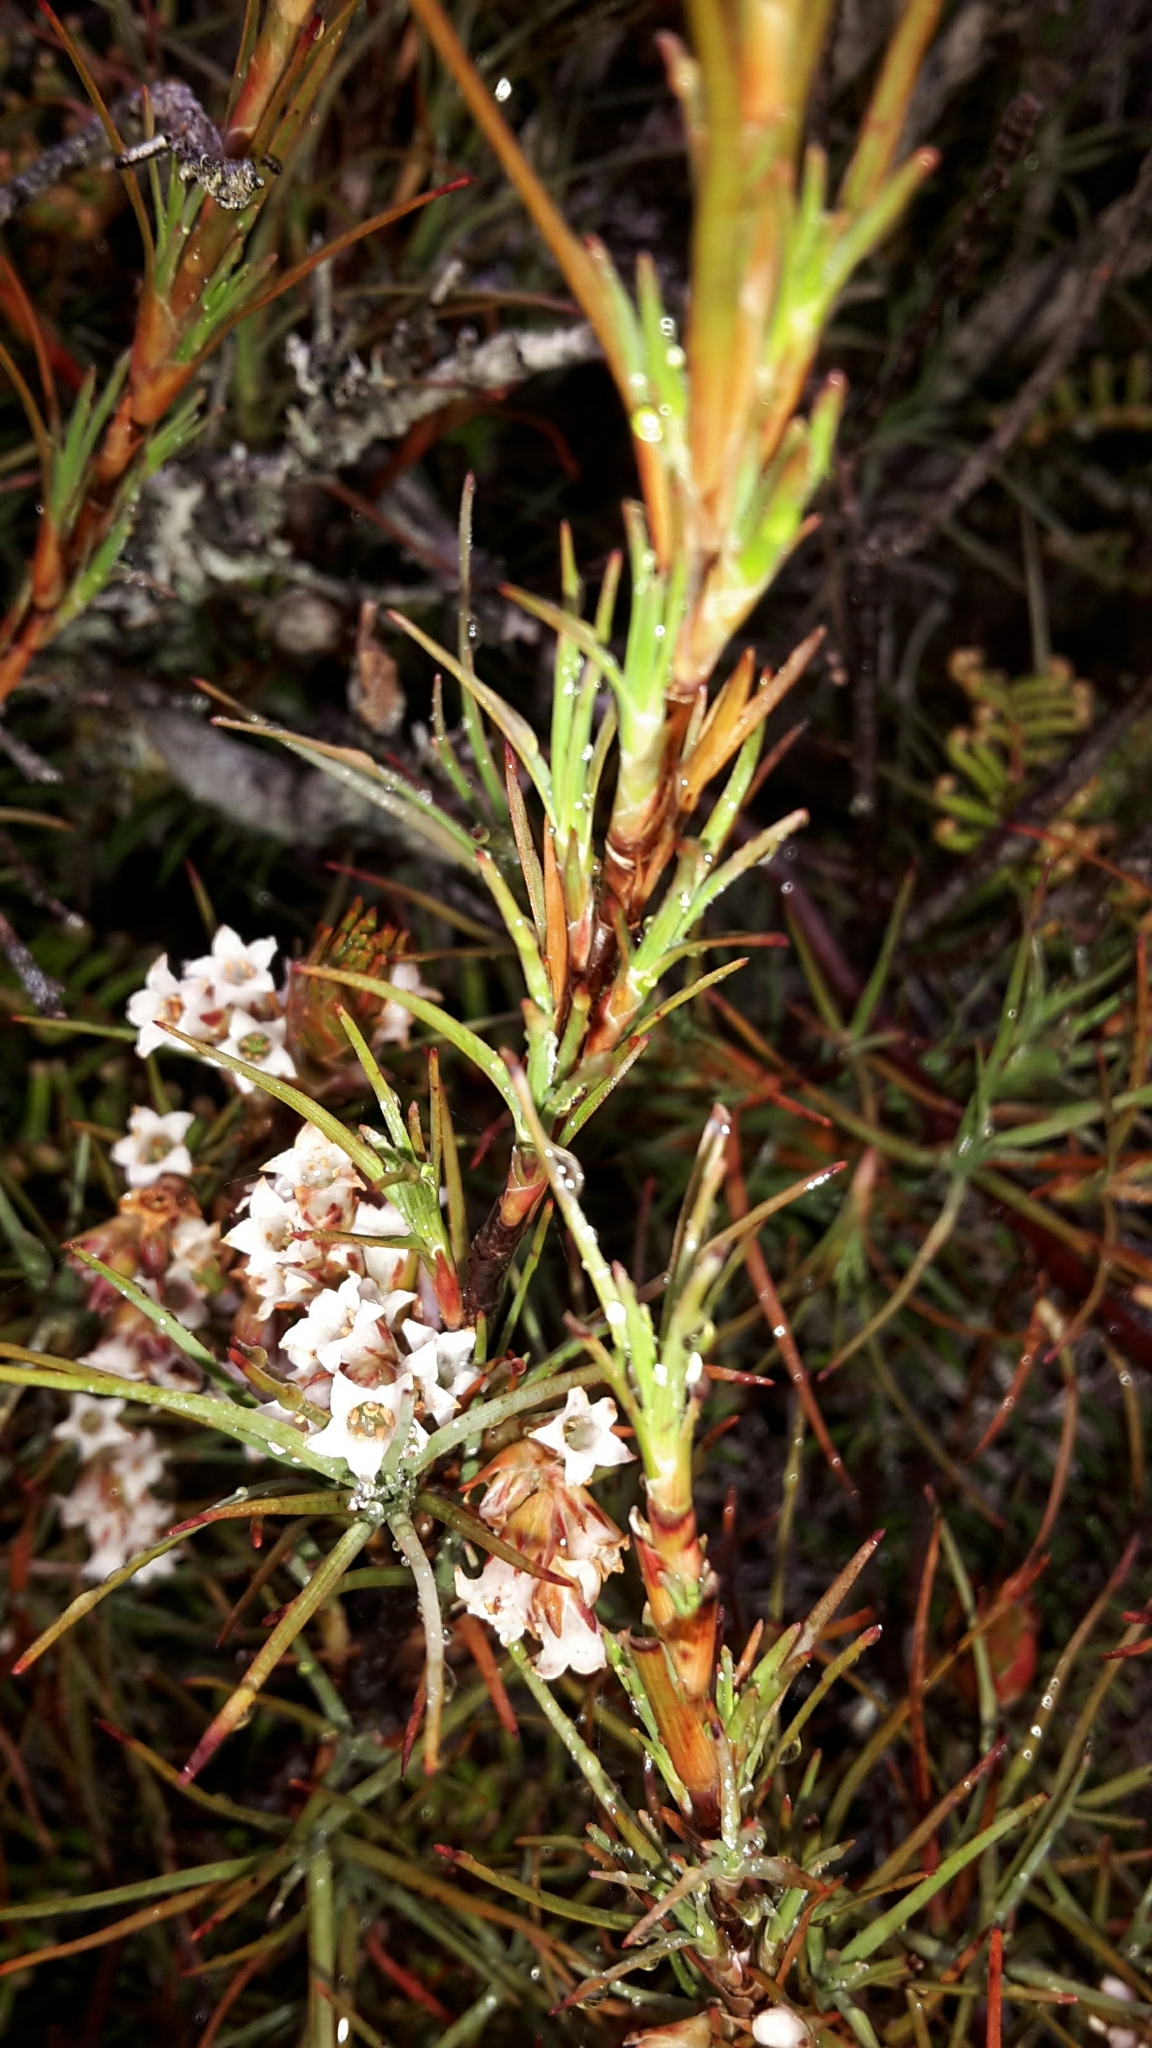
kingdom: Plantae
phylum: Tracheophyta
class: Magnoliopsida
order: Ericales
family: Ericaceae
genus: Dracophyllum
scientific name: Dracophyllum subulatum
